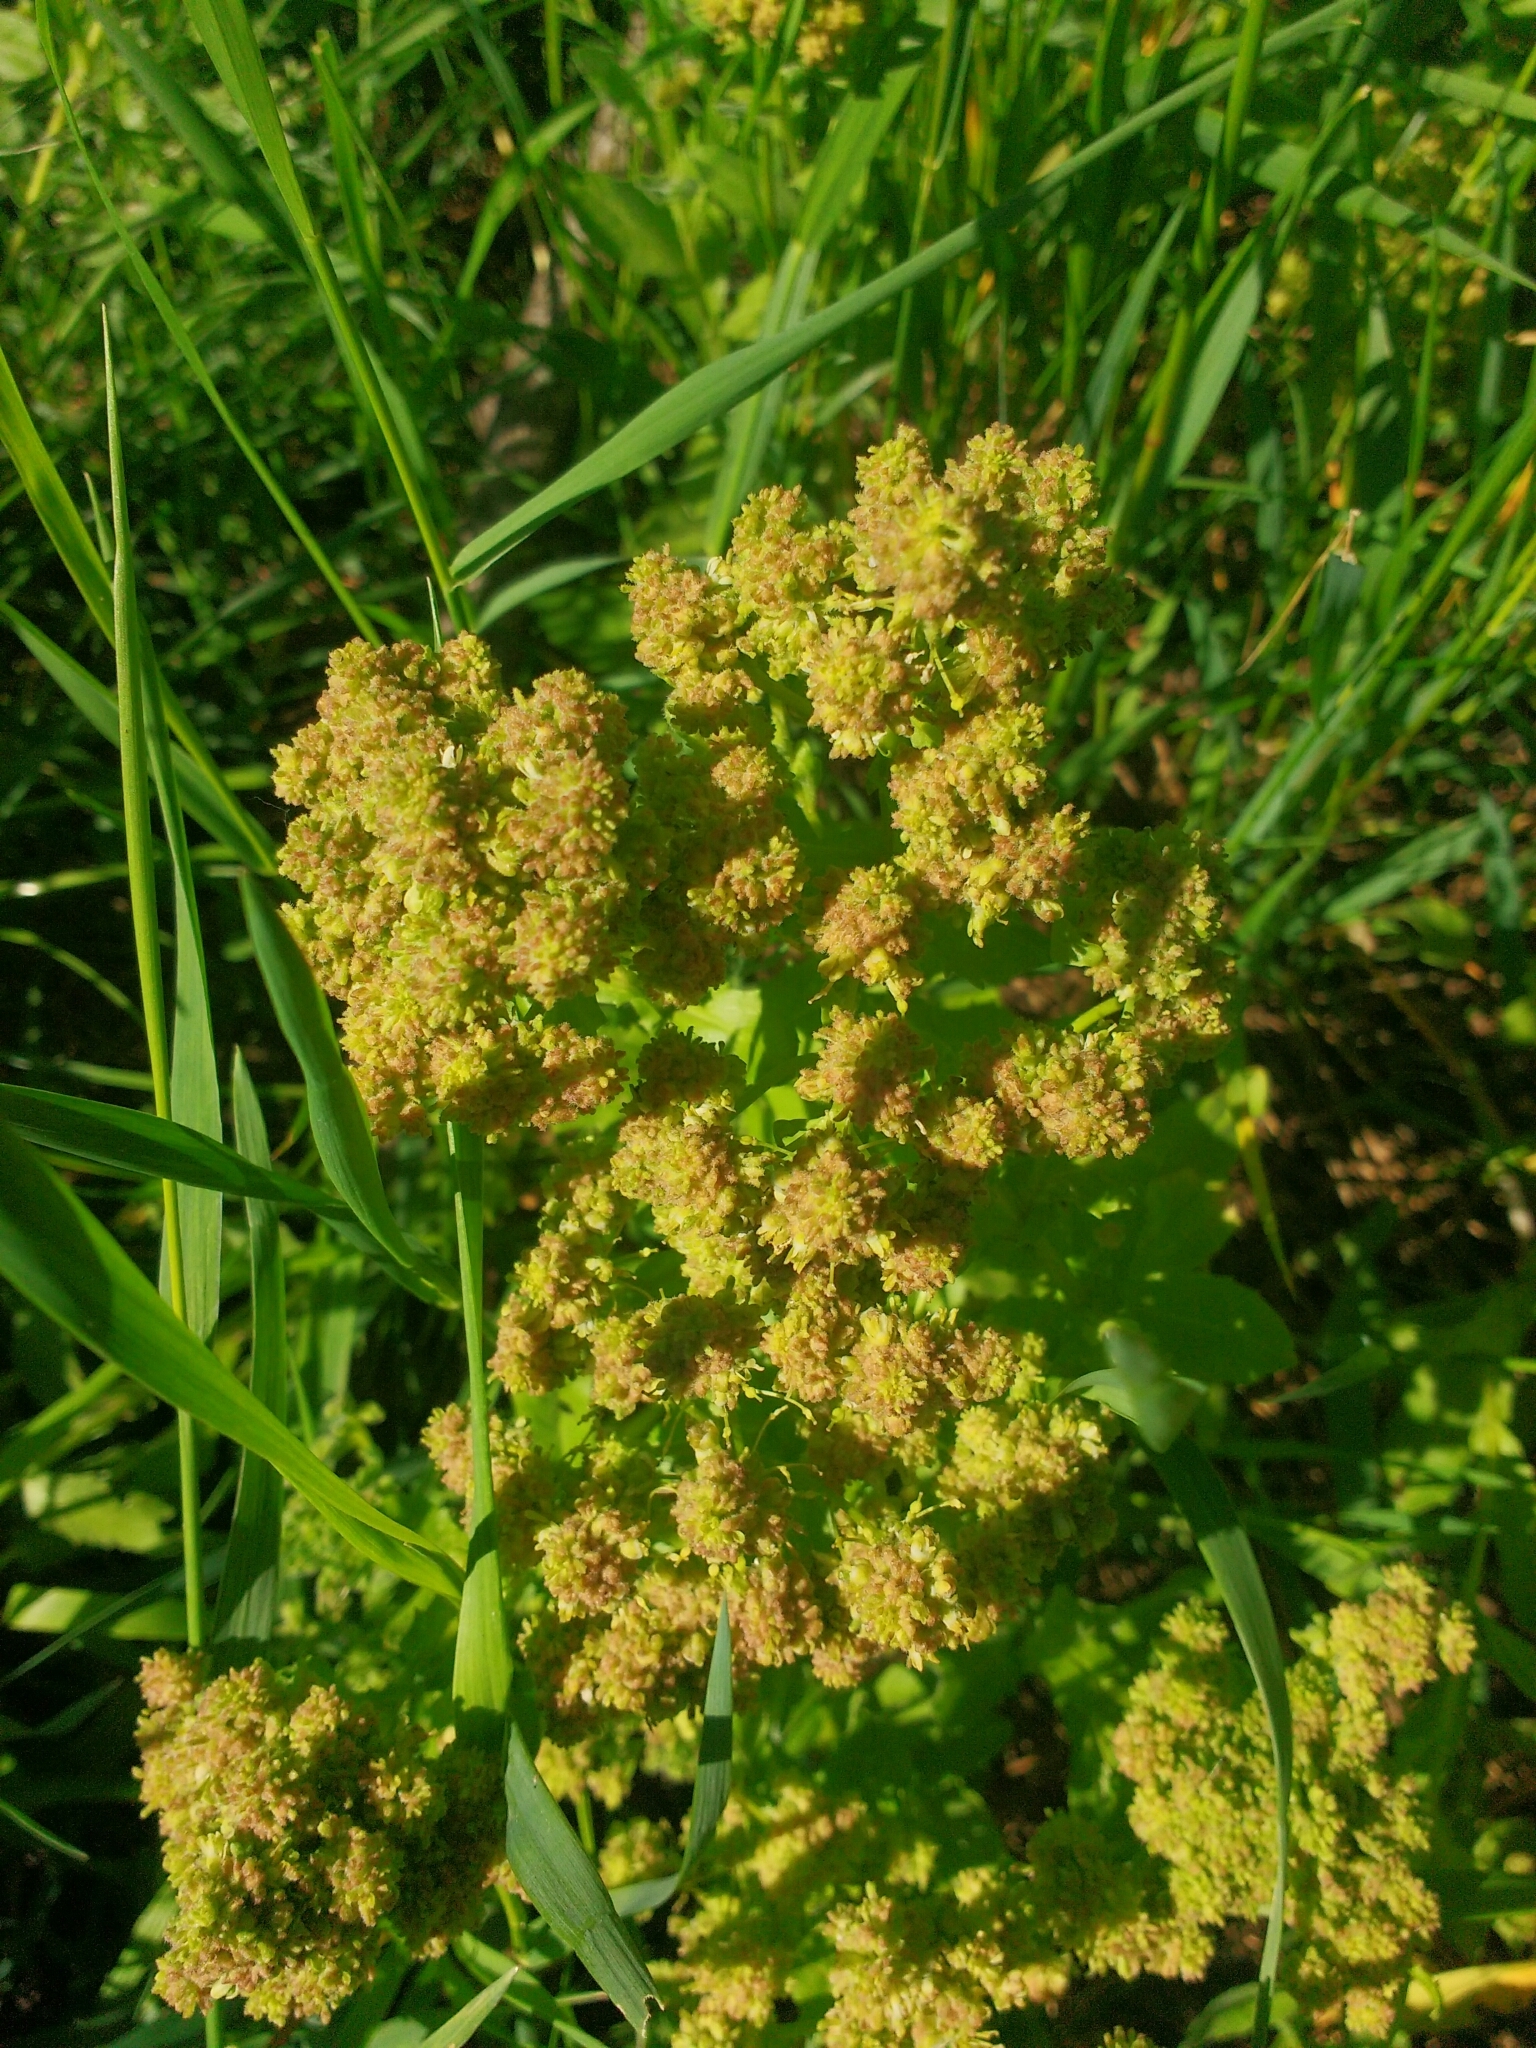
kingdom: Plantae
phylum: Tracheophyta
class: Magnoliopsida
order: Brassicales
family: Brassicaceae
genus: Lepidium
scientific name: Lepidium draba
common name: Hoary cress
